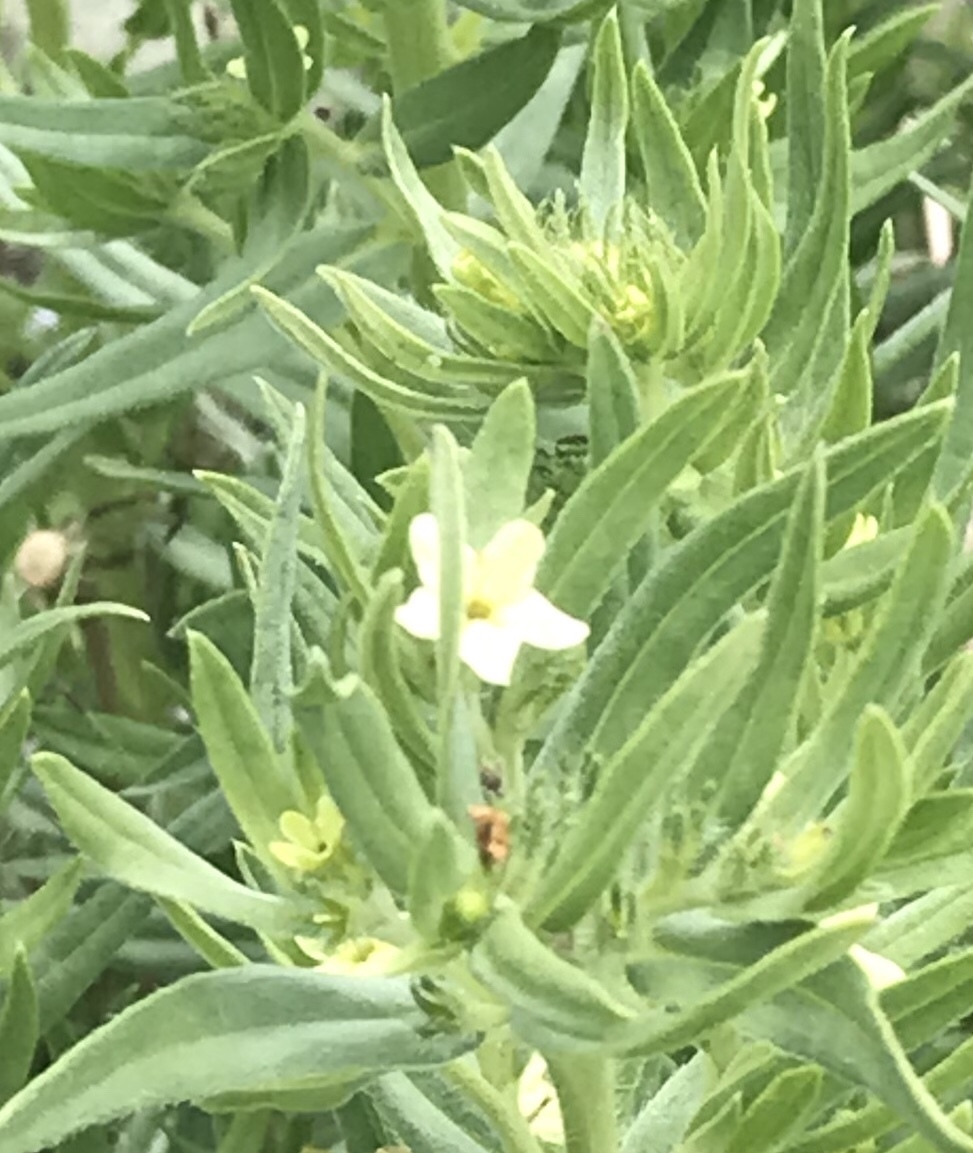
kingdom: Plantae
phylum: Tracheophyta
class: Magnoliopsida
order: Boraginales
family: Boraginaceae
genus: Lithospermum
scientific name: Lithospermum ruderale
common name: Western gromwell
